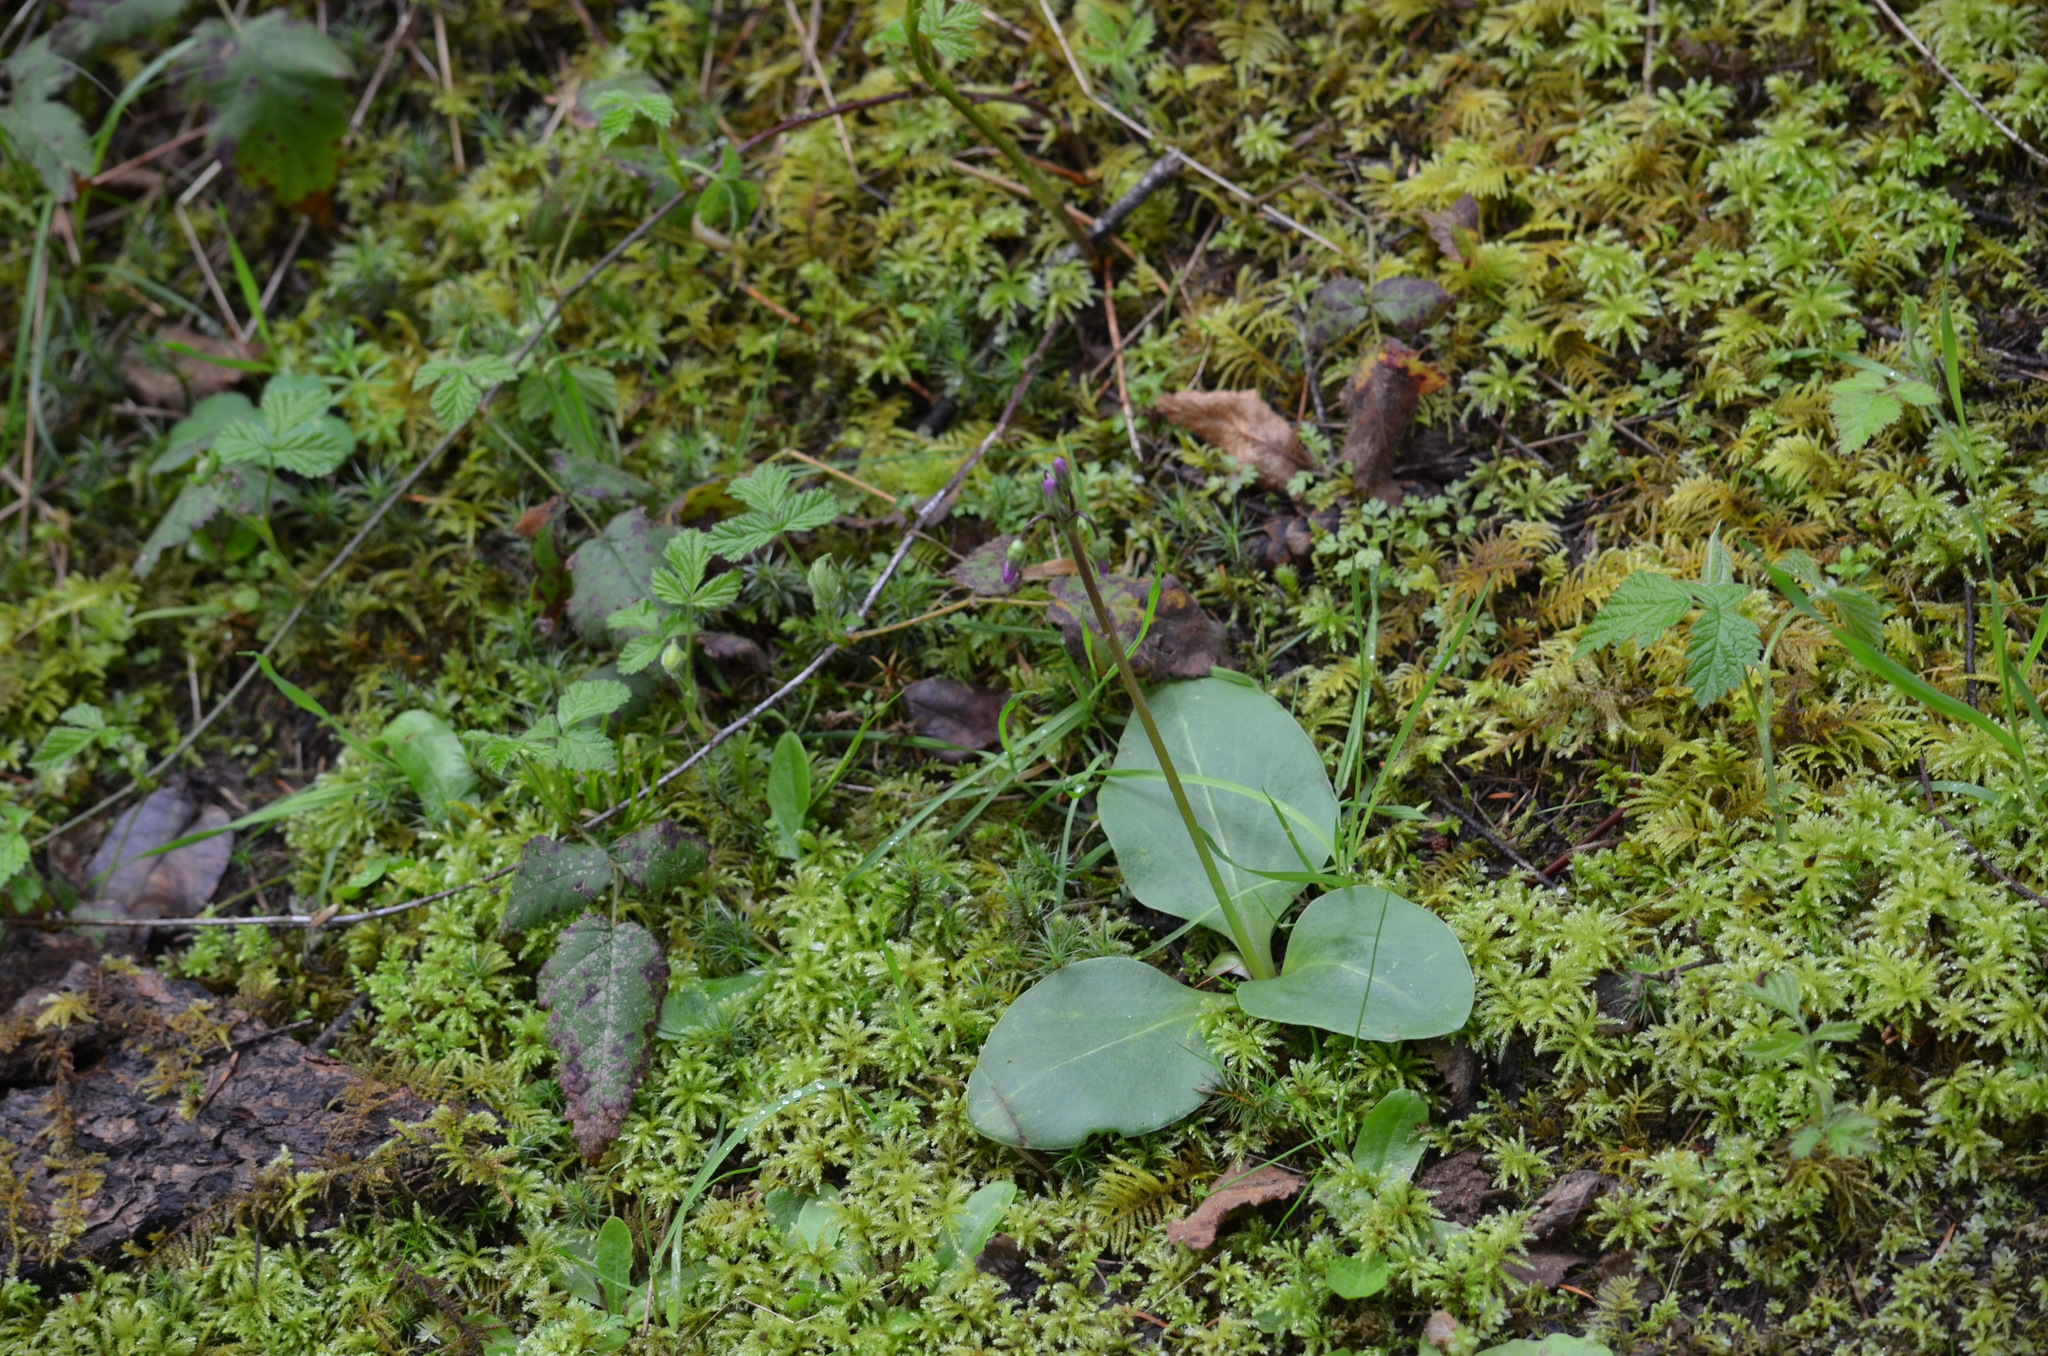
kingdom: Plantae
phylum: Tracheophyta
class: Magnoliopsida
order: Ericales
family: Primulaceae
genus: Dodecatheon
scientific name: Dodecatheon hendersonii
